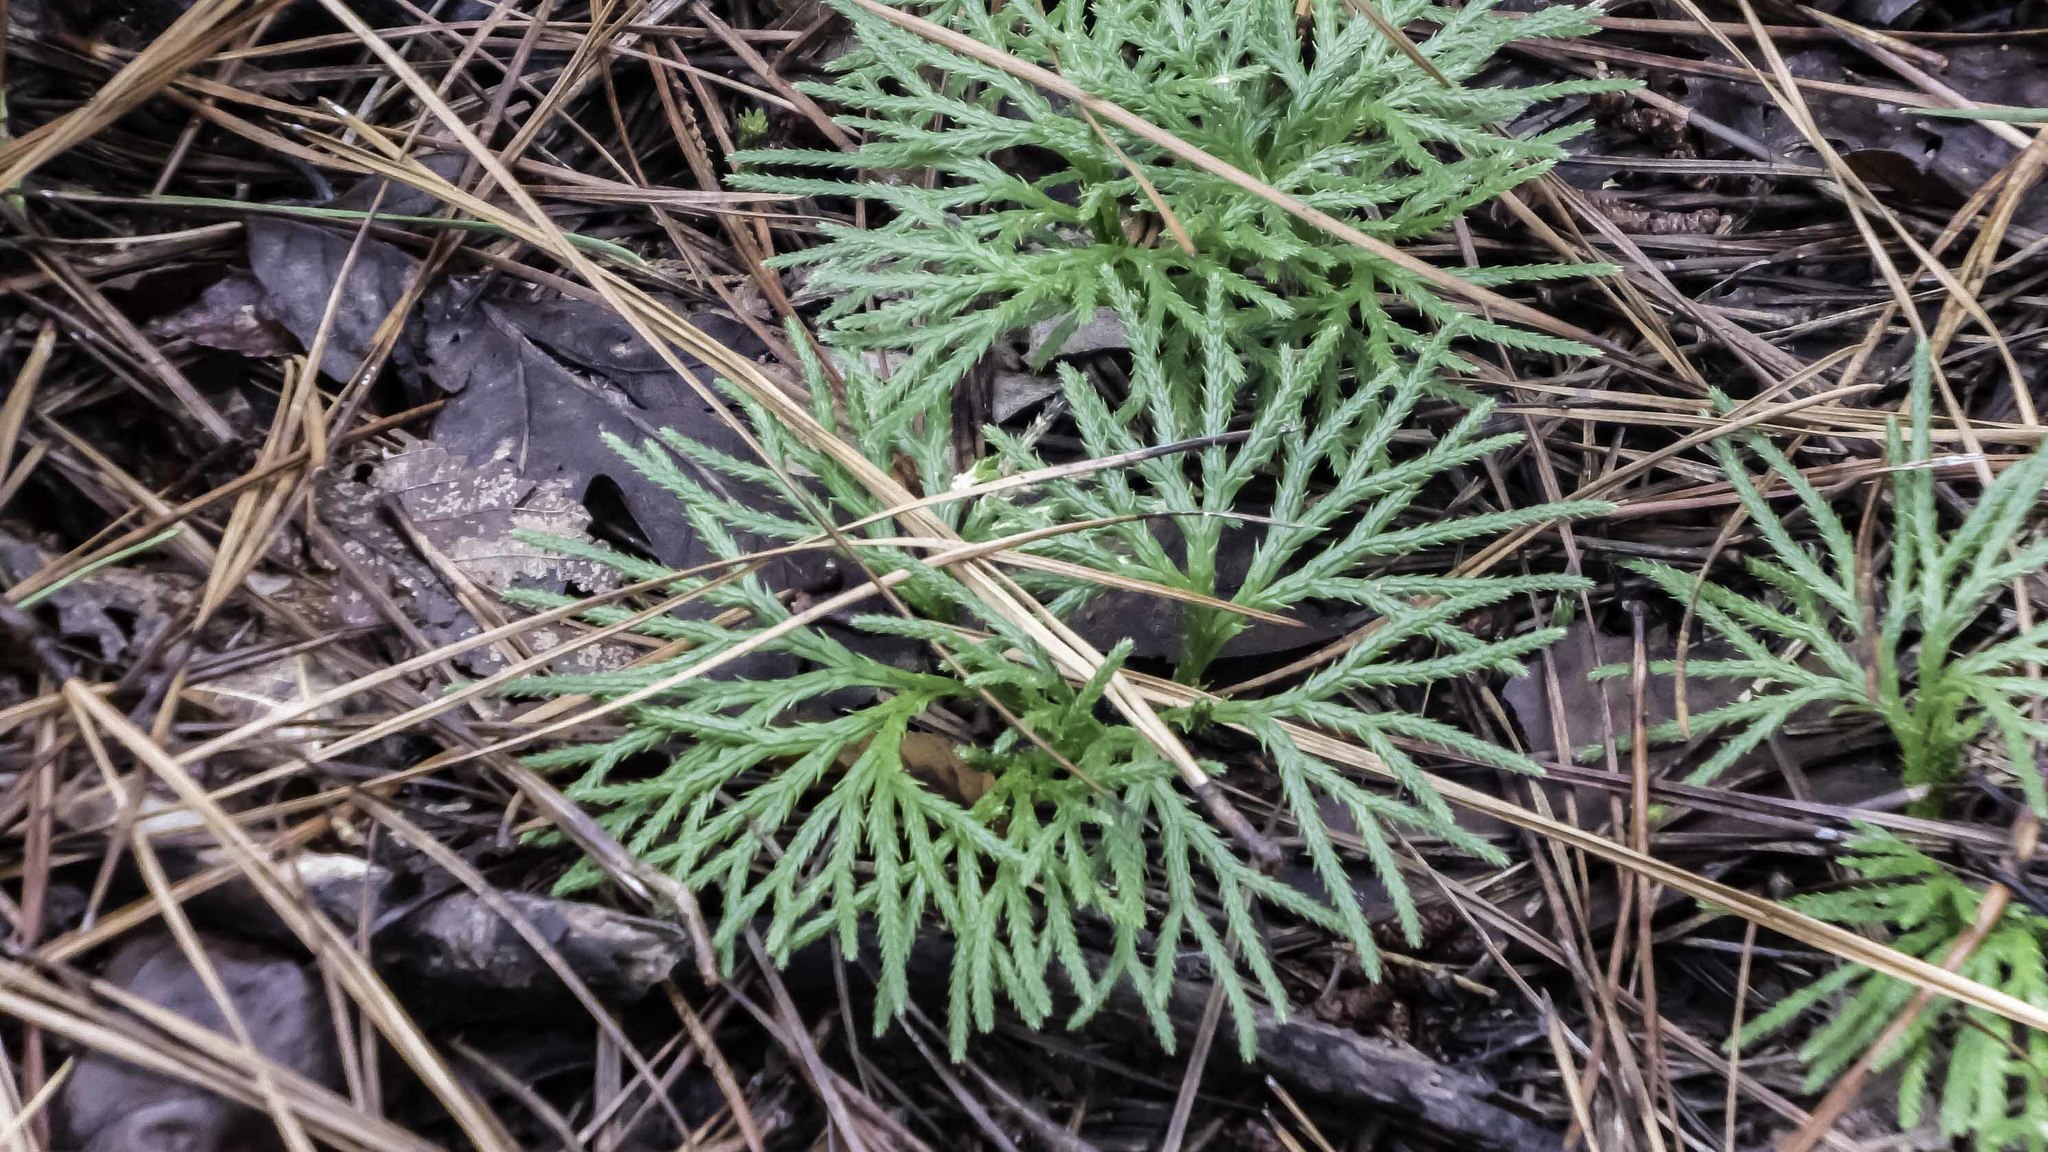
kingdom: Plantae
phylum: Tracheophyta
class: Lycopodiopsida
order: Lycopodiales
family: Lycopodiaceae
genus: Diphasiastrum
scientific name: Diphasiastrum digitatum
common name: Southern running-pine
